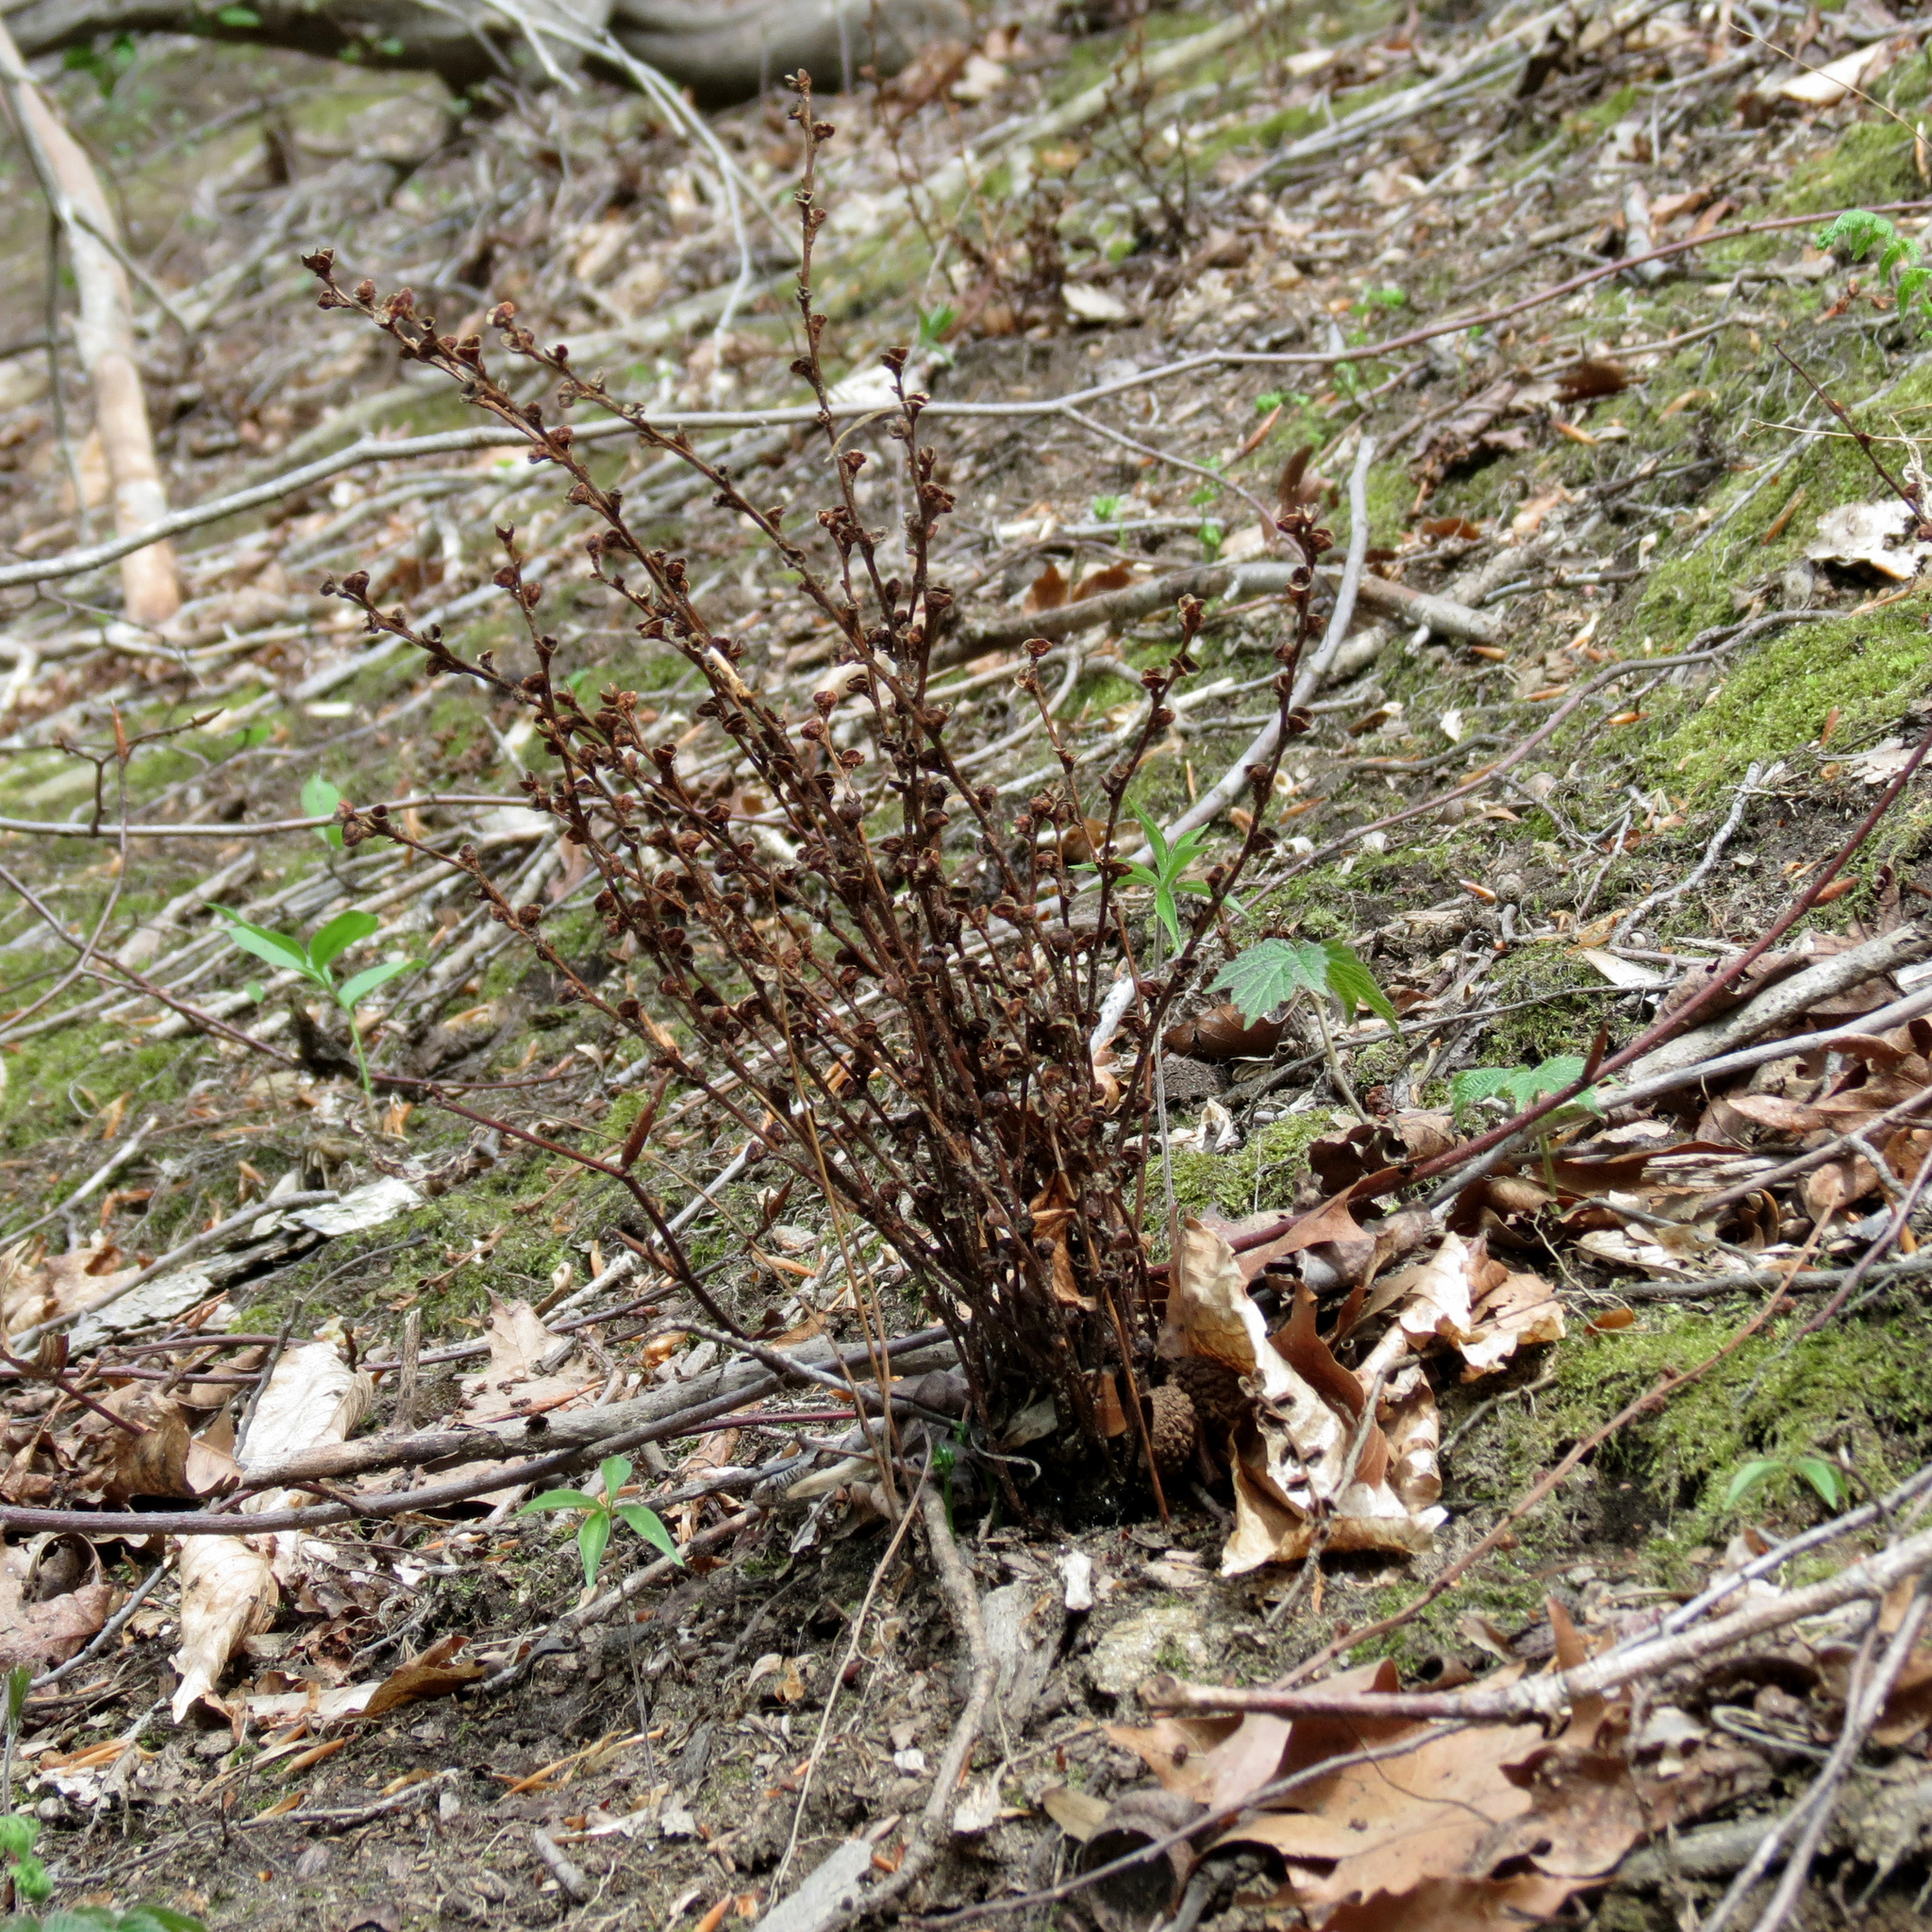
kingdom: Plantae
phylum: Tracheophyta
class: Magnoliopsida
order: Lamiales
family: Orobanchaceae
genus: Epifagus
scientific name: Epifagus virginiana
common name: Beechdrops
